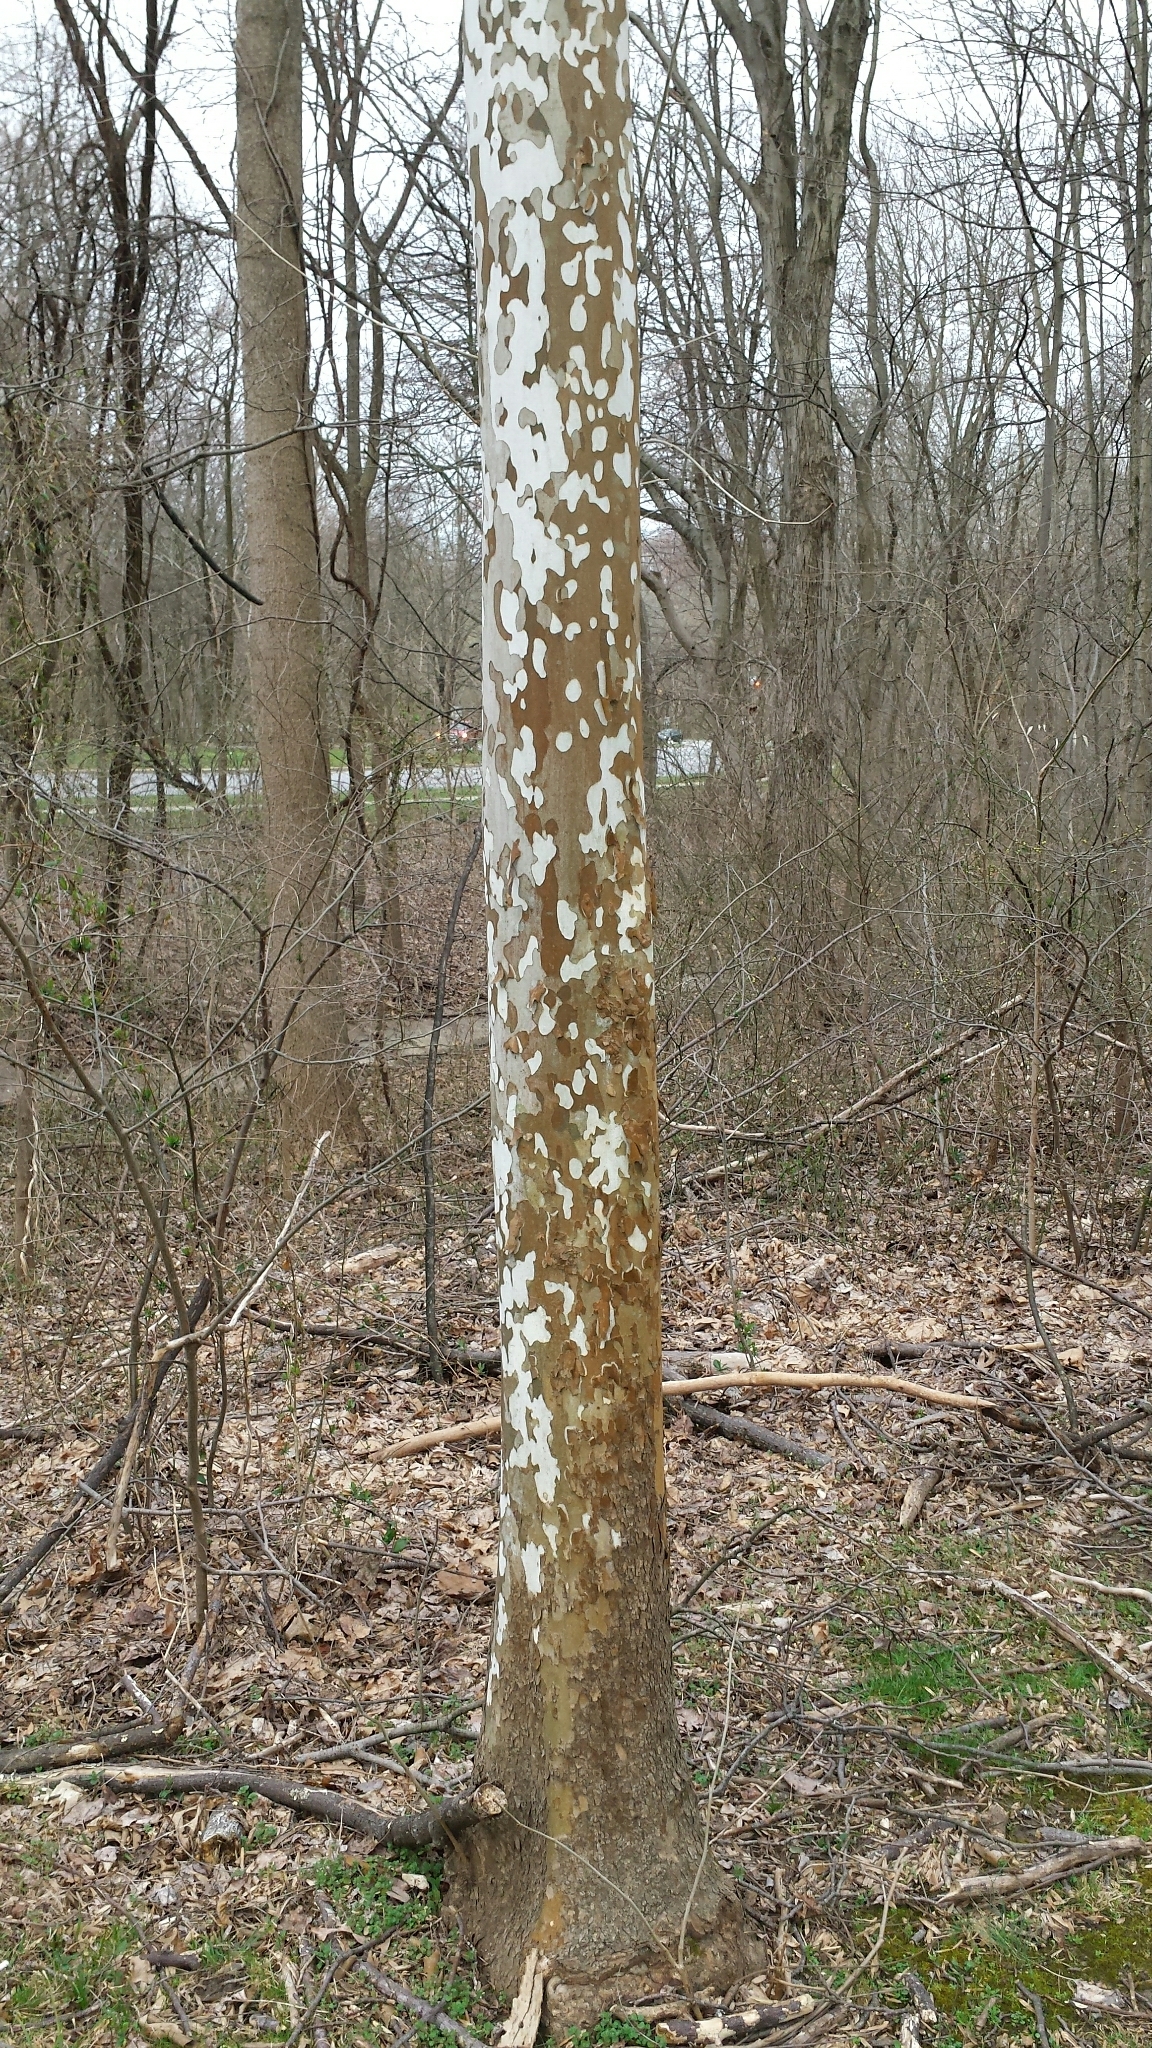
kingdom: Plantae
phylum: Tracheophyta
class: Magnoliopsida
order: Proteales
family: Platanaceae
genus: Platanus
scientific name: Platanus occidentalis
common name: American sycamore
